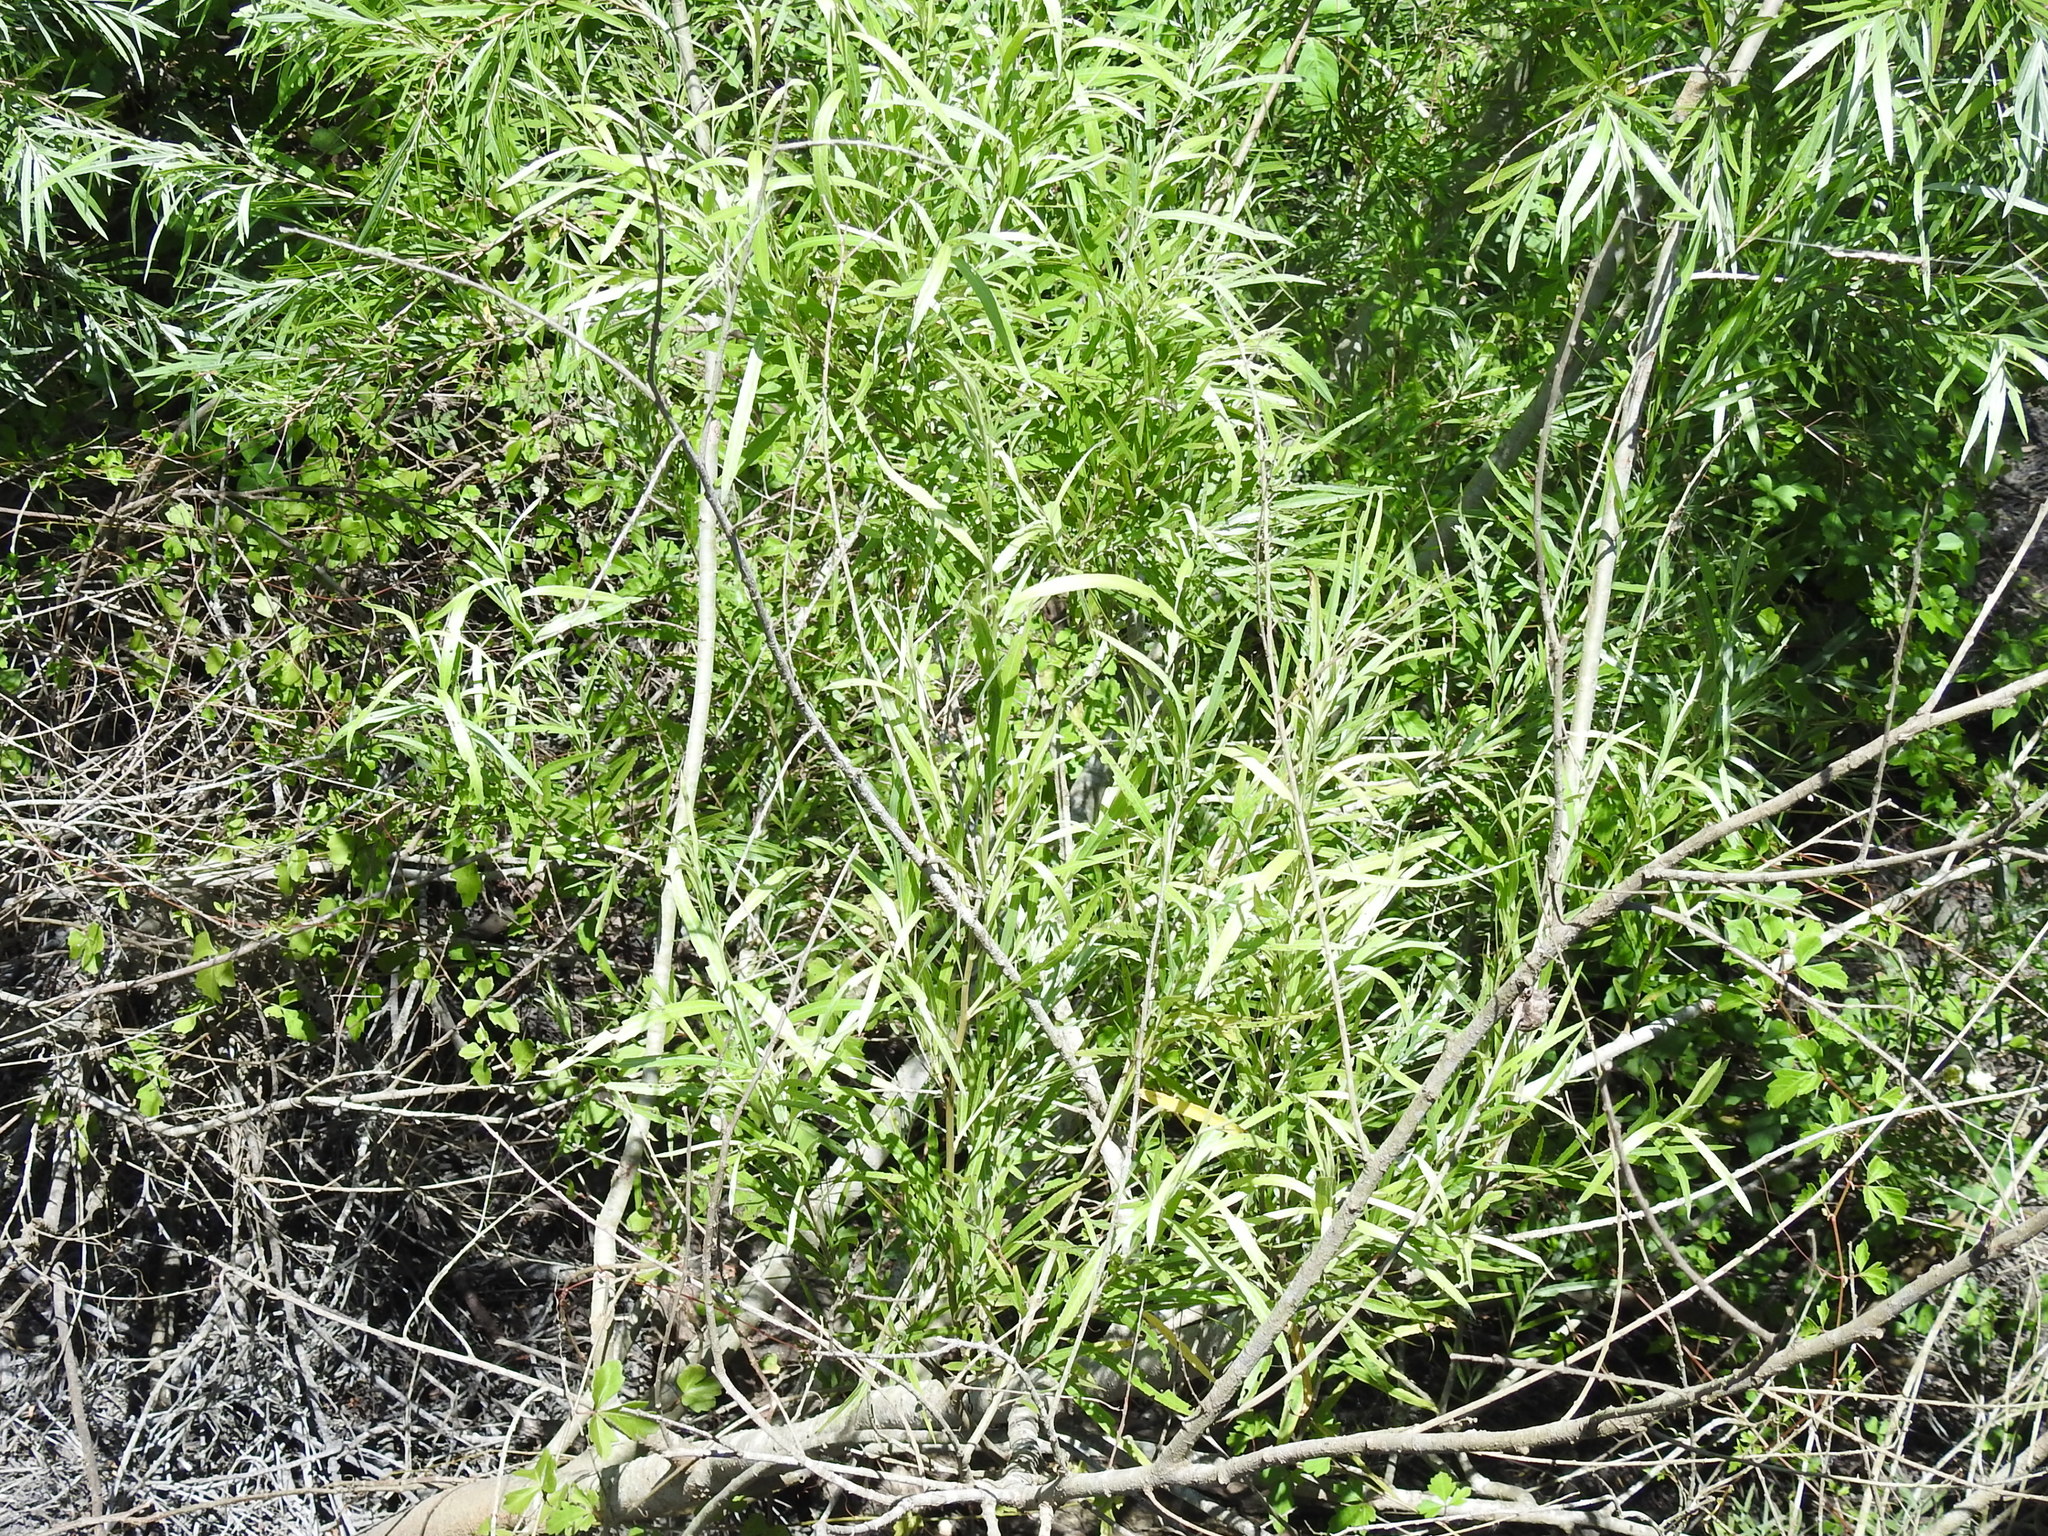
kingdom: Plantae
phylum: Tracheophyta
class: Magnoliopsida
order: Malpighiales
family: Salicaceae
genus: Salix
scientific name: Salix exigua
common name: Coyote willow
